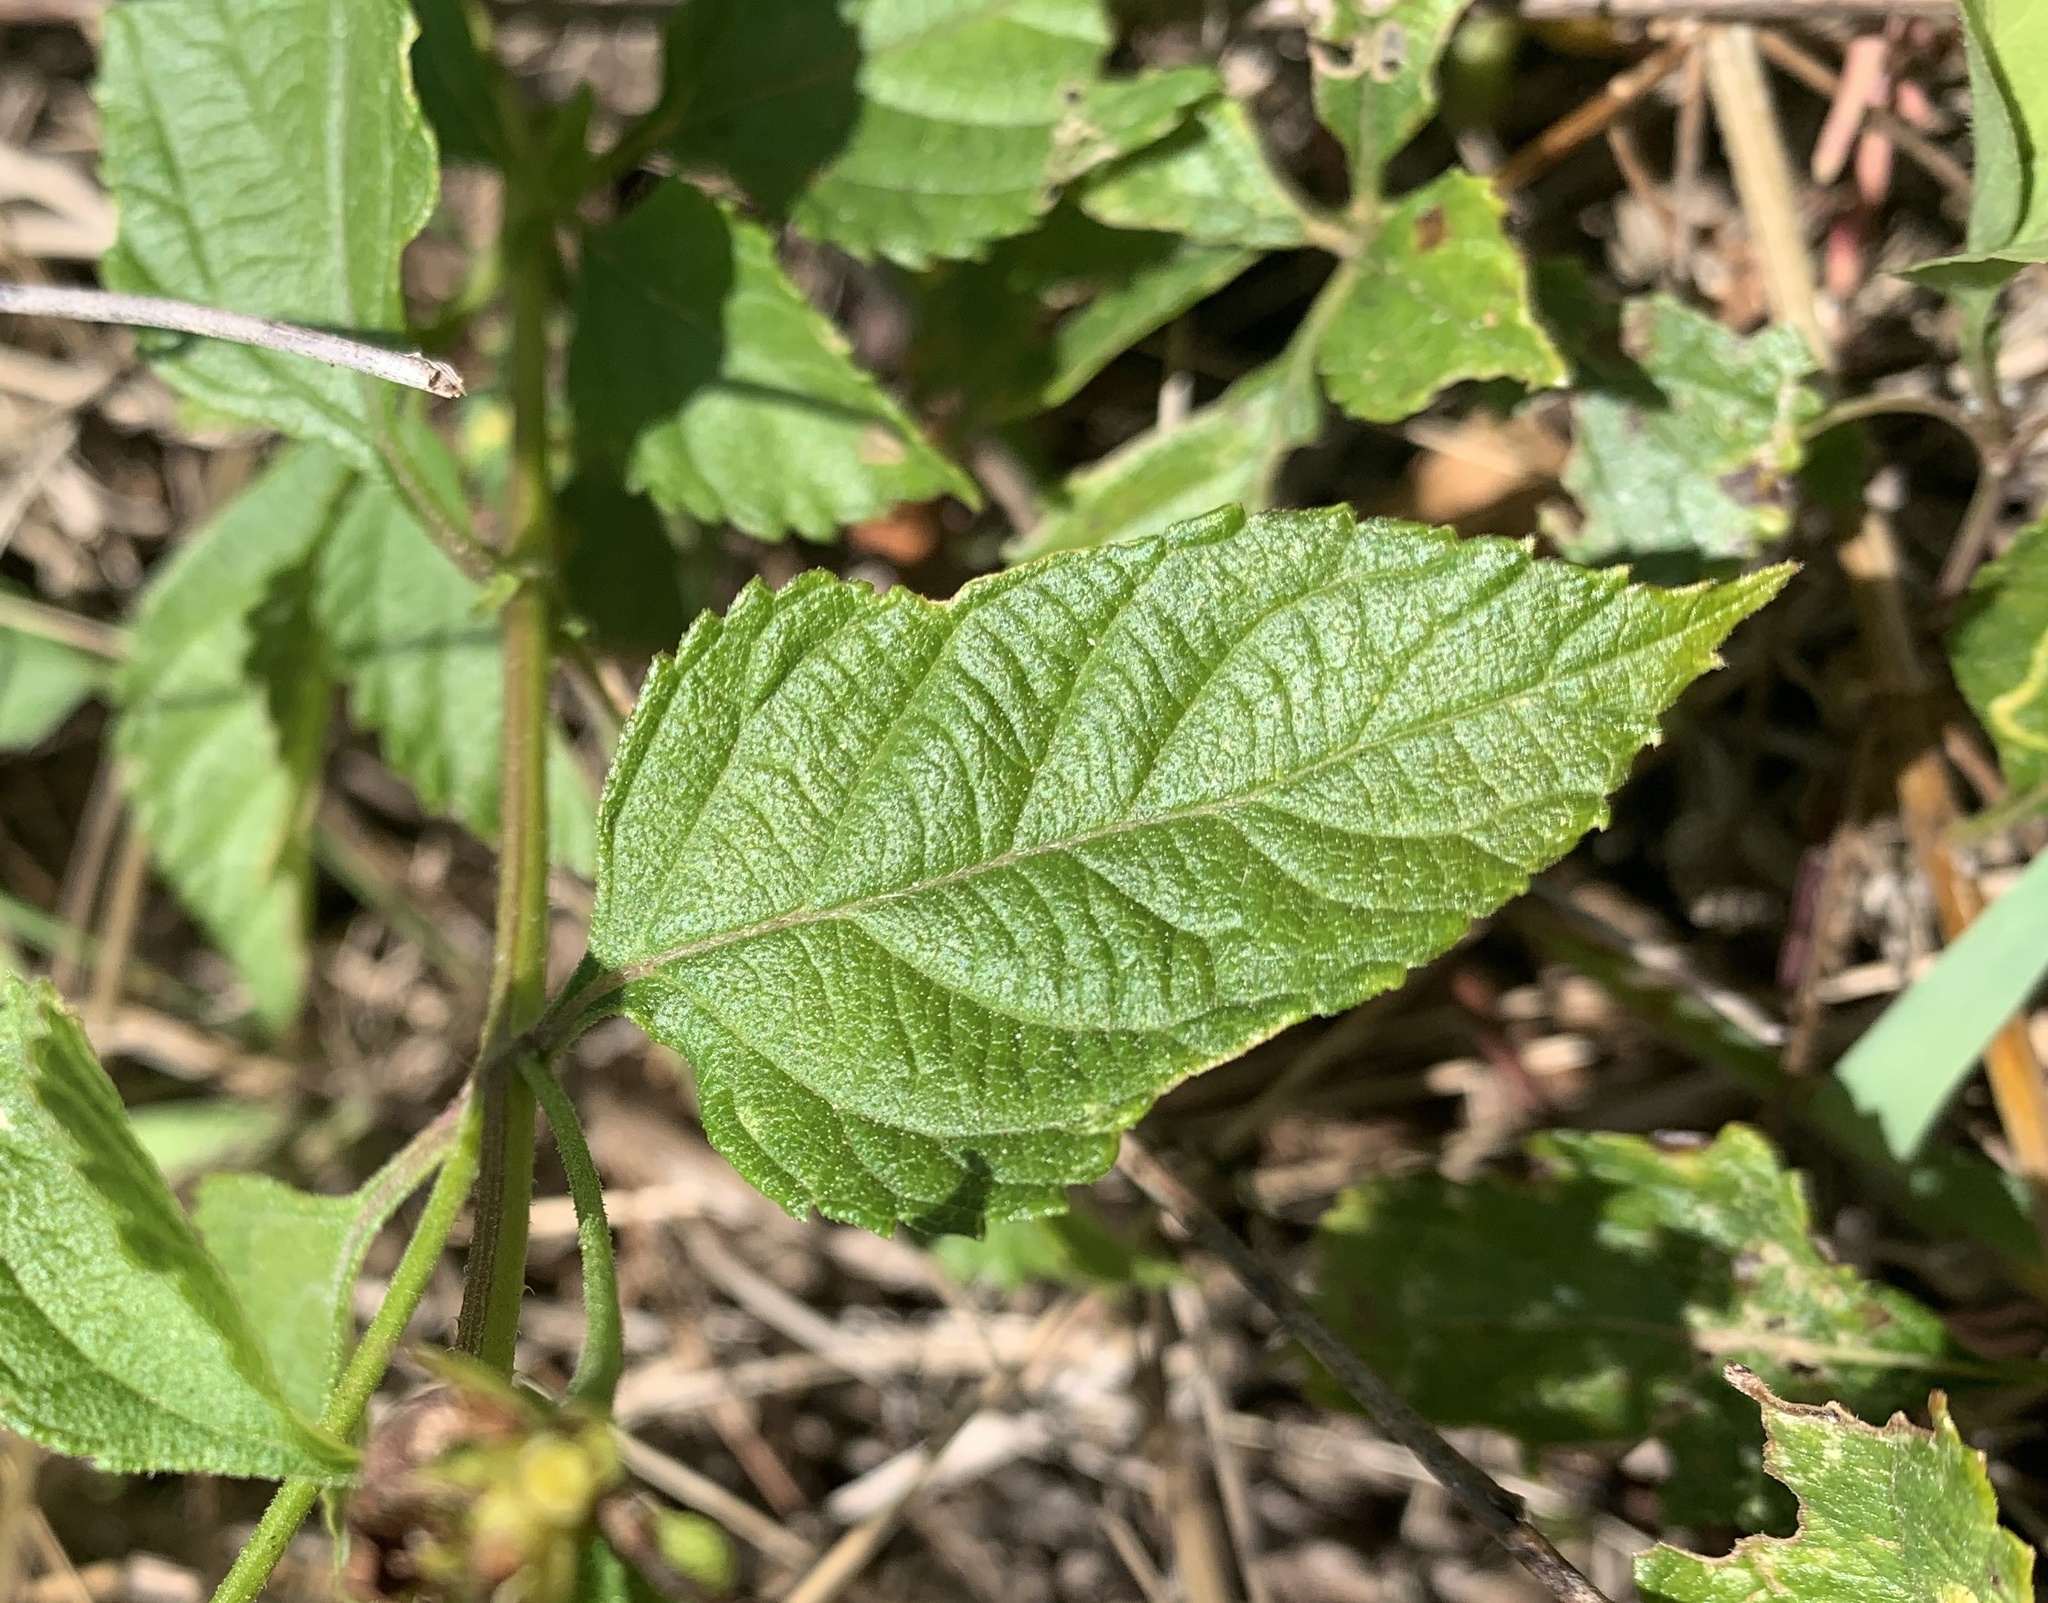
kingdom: Plantae
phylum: Tracheophyta
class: Magnoliopsida
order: Lamiales
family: Verbenaceae
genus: Lantana
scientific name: Lantana camara
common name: Lantana
